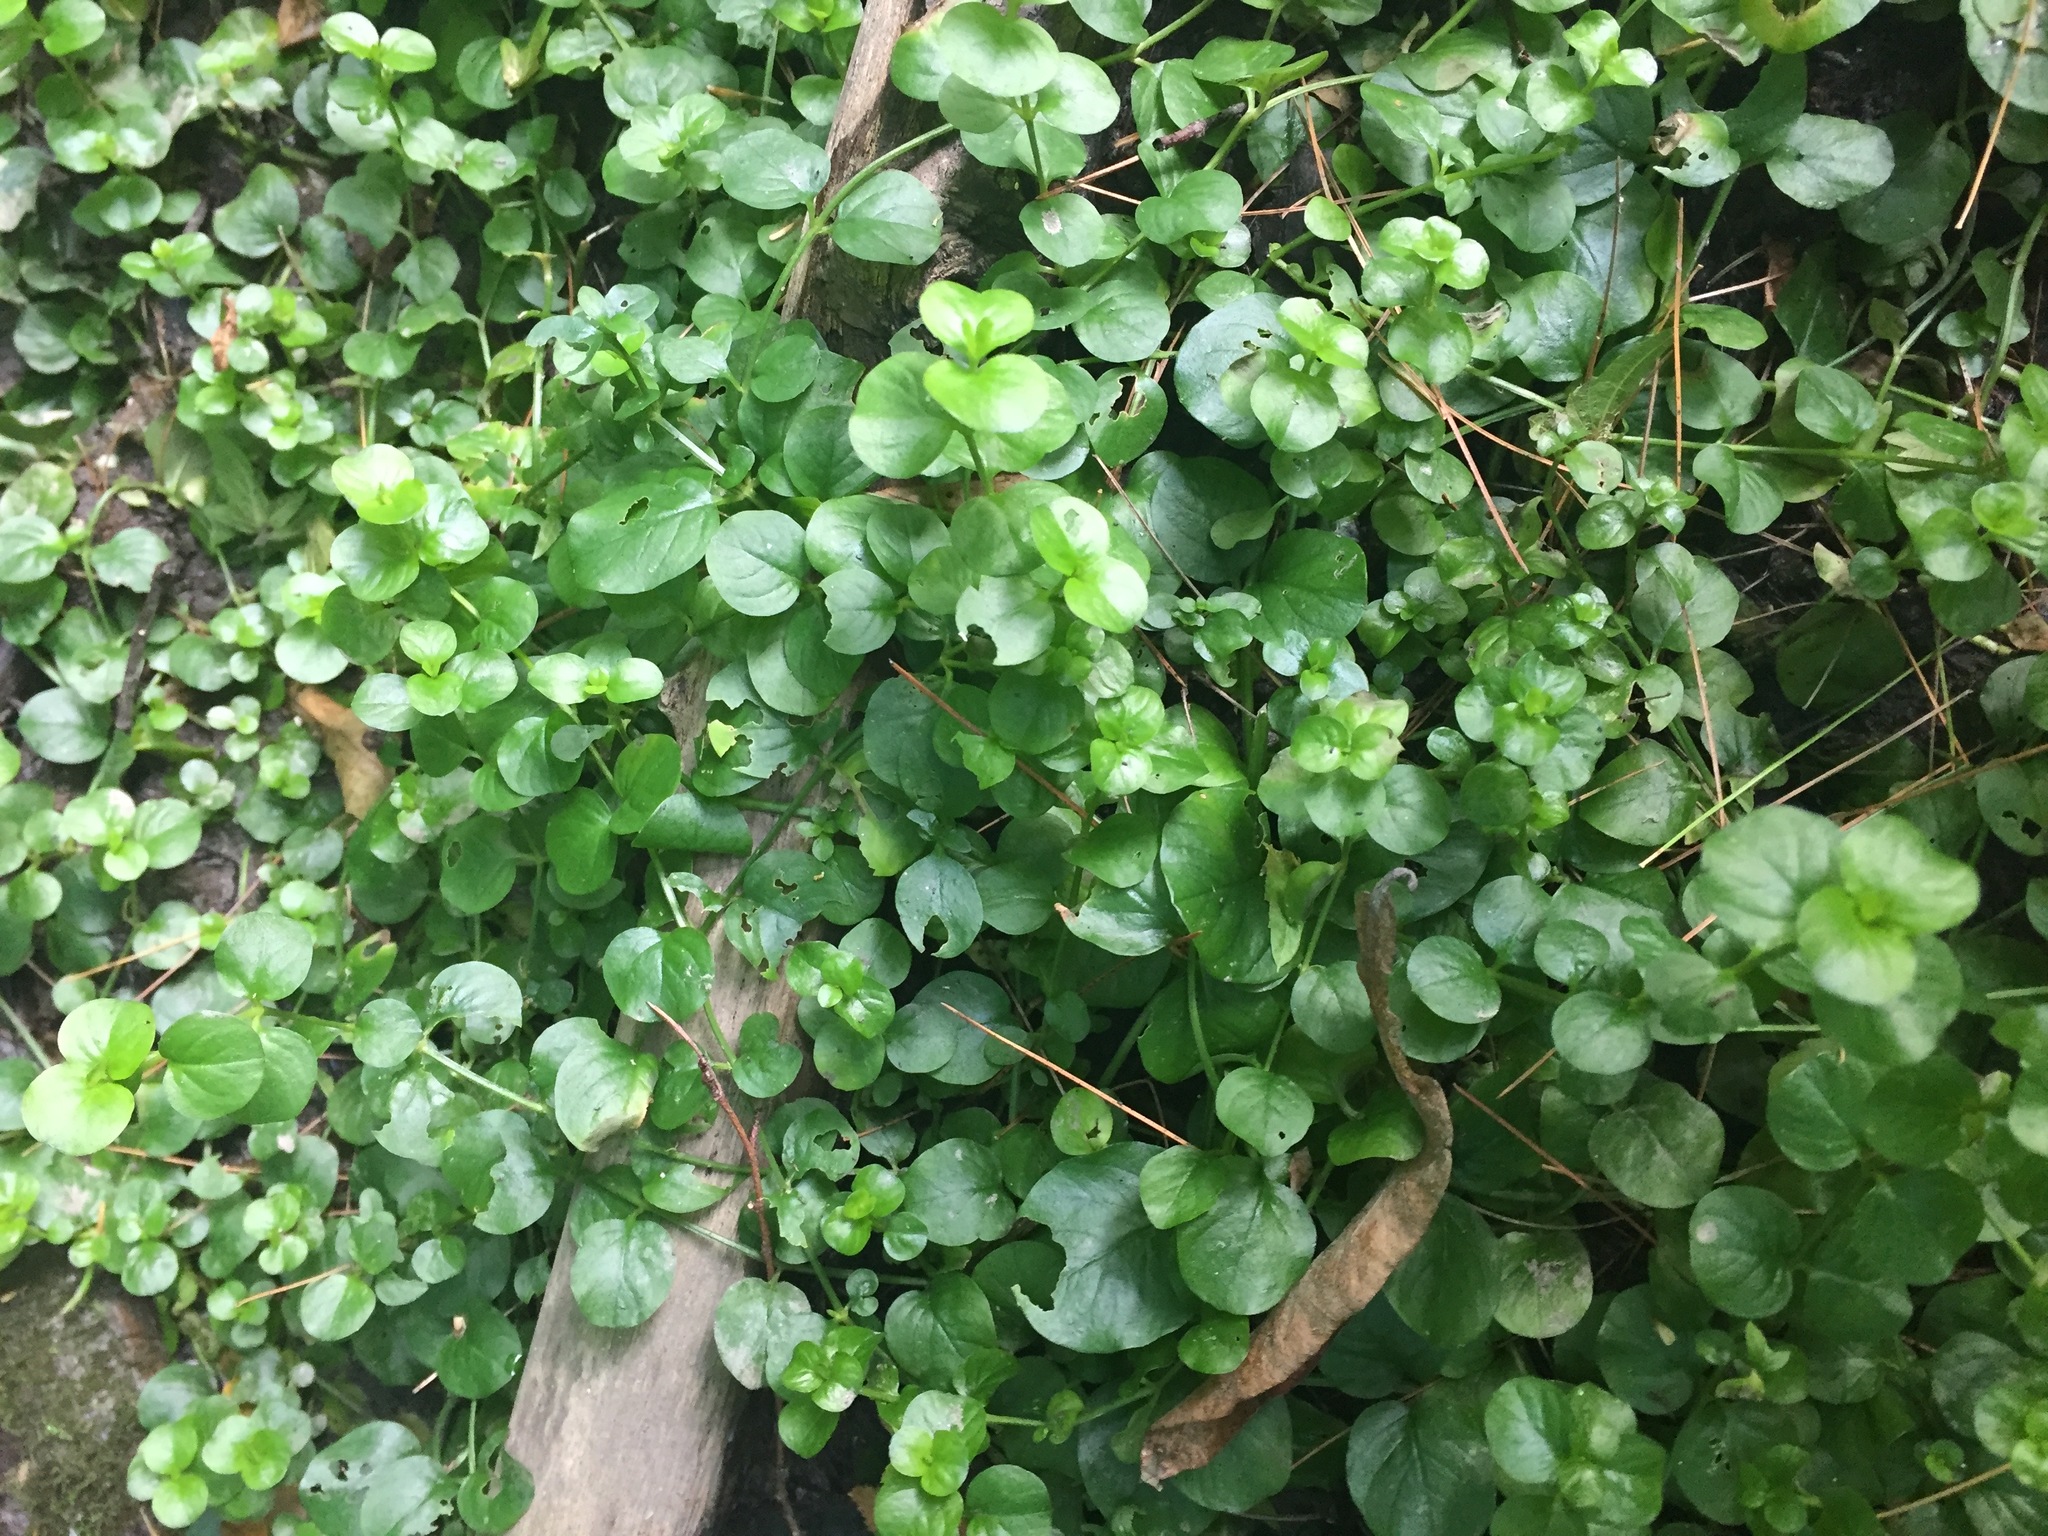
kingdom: Plantae
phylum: Tracheophyta
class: Magnoliopsida
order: Ericales
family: Primulaceae
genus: Lysimachia
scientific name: Lysimachia nummularia
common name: Moneywort
